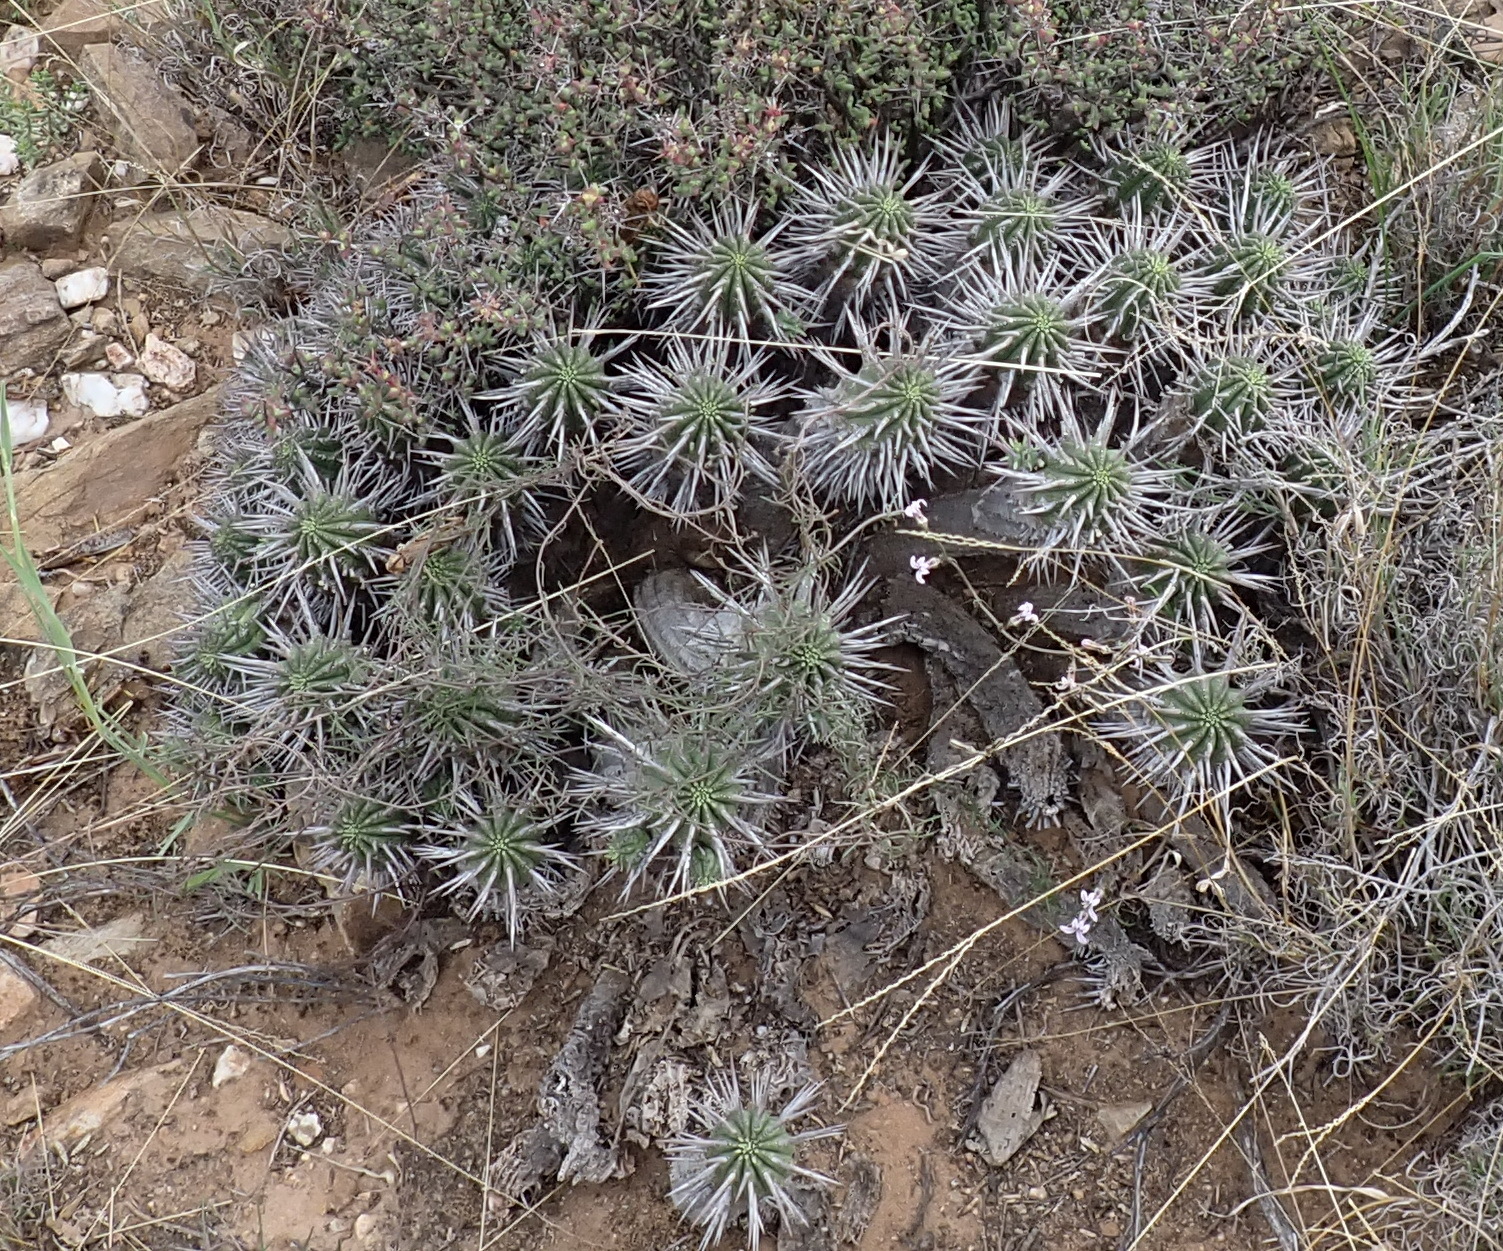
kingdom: Plantae
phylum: Tracheophyta
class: Magnoliopsida
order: Malpighiales
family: Euphorbiaceae
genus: Euphorbia
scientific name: Euphorbia ferox
